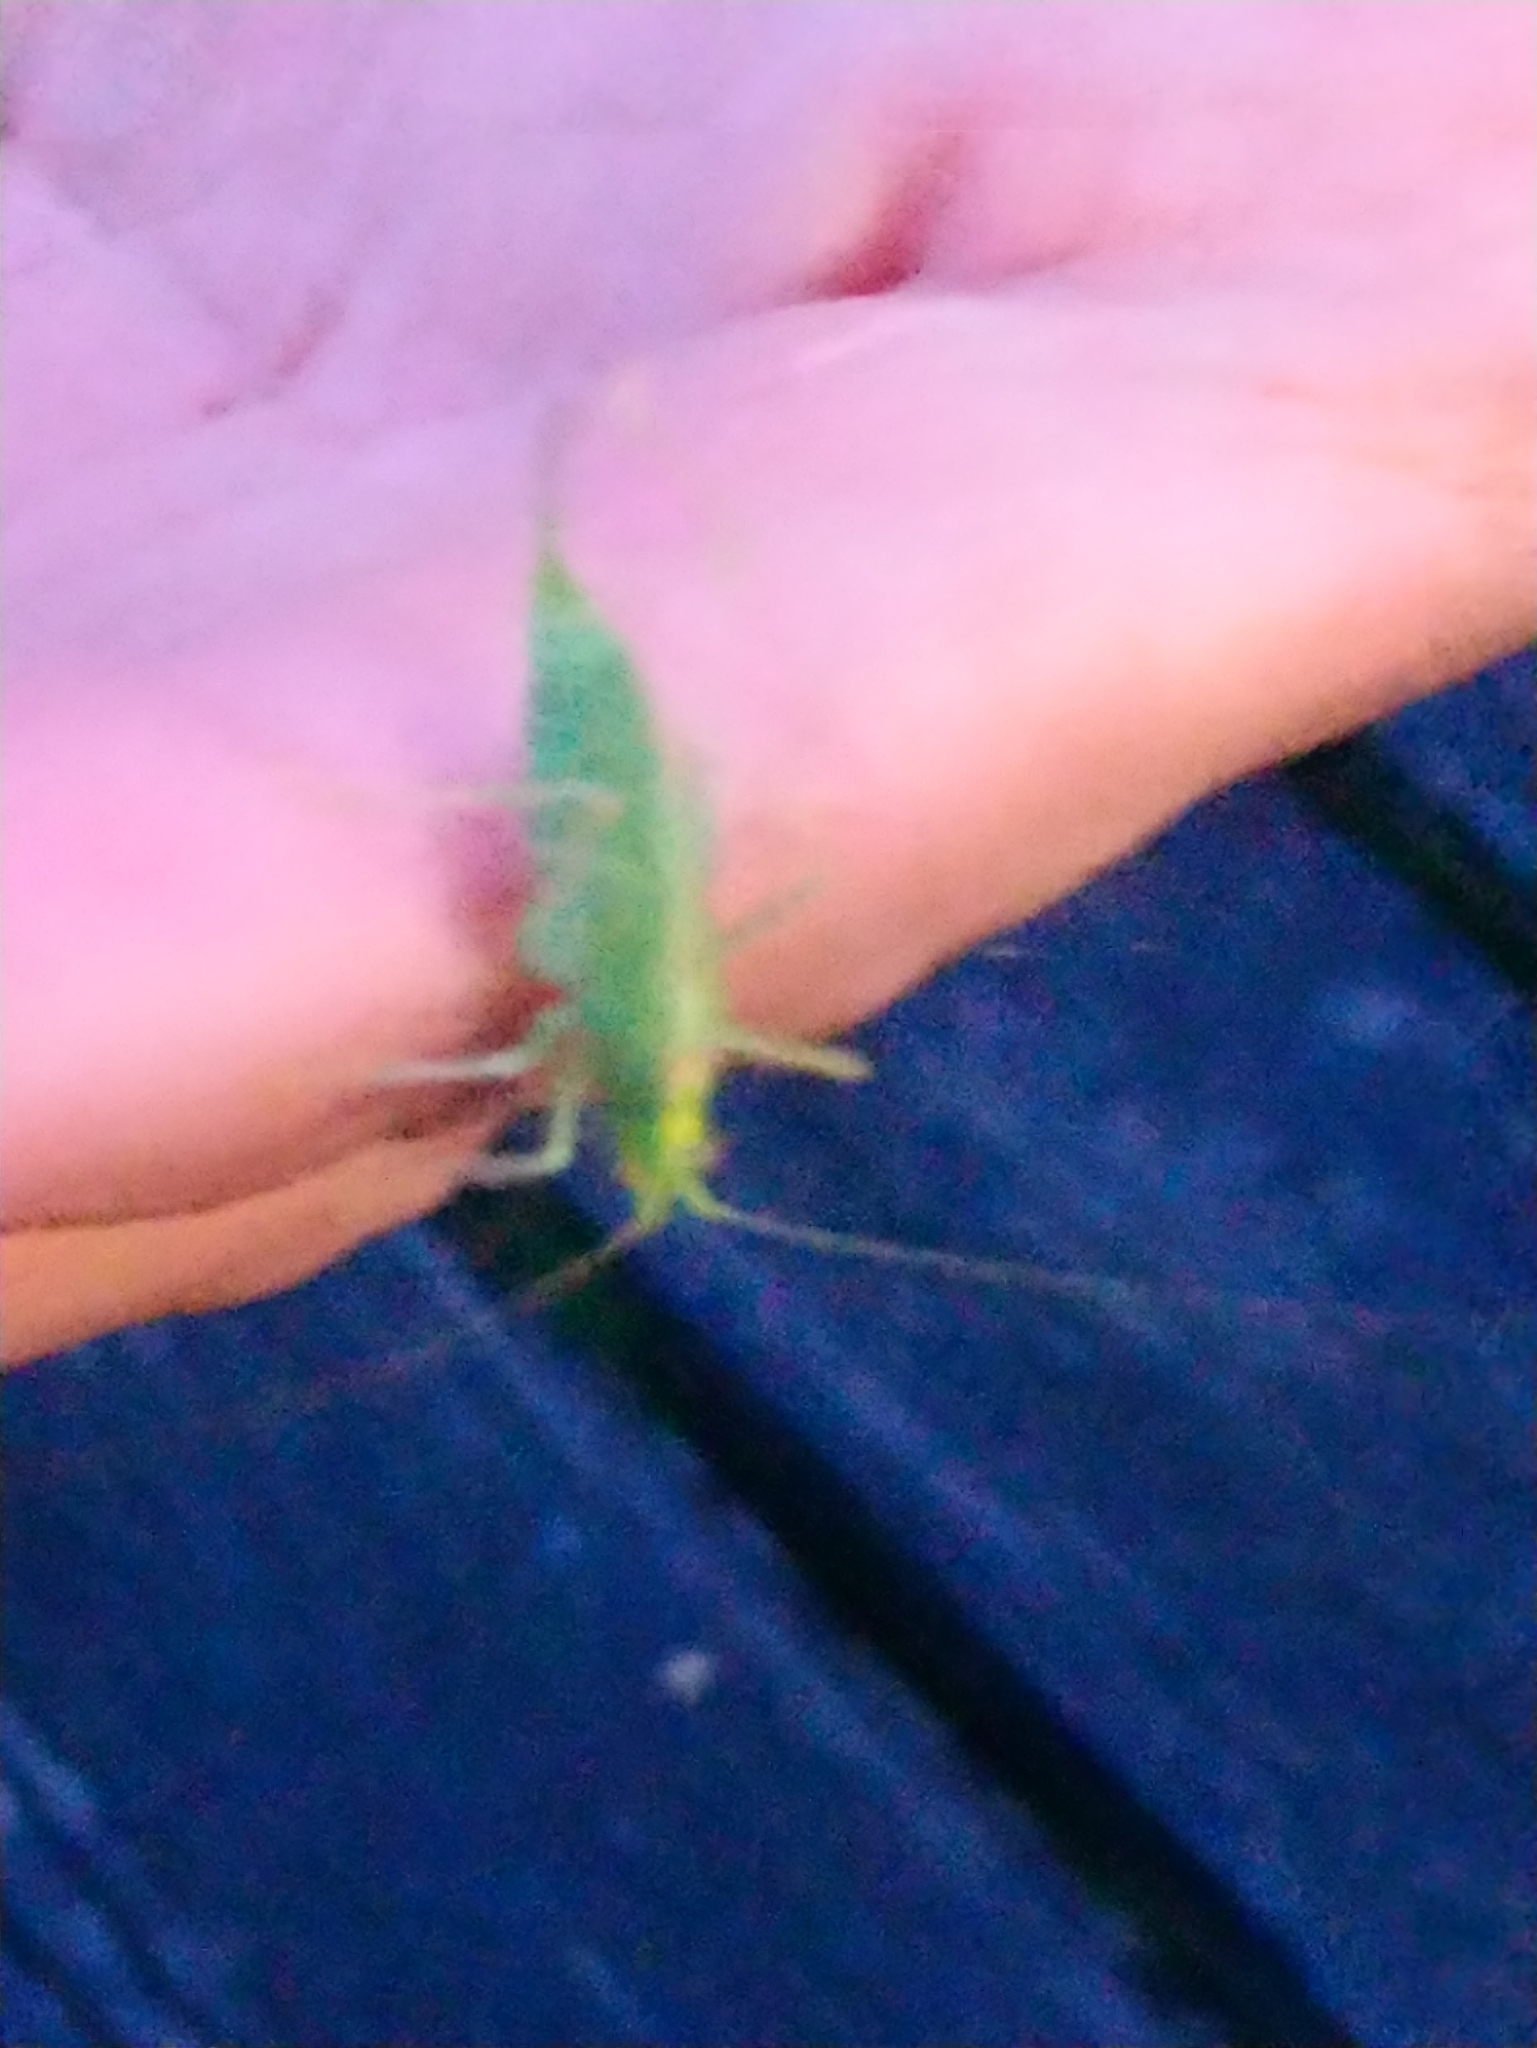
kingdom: Animalia
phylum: Arthropoda
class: Insecta
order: Orthoptera
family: Tettigoniidae
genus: Meconema
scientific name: Meconema thalassinum
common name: Oak bush-cricket
